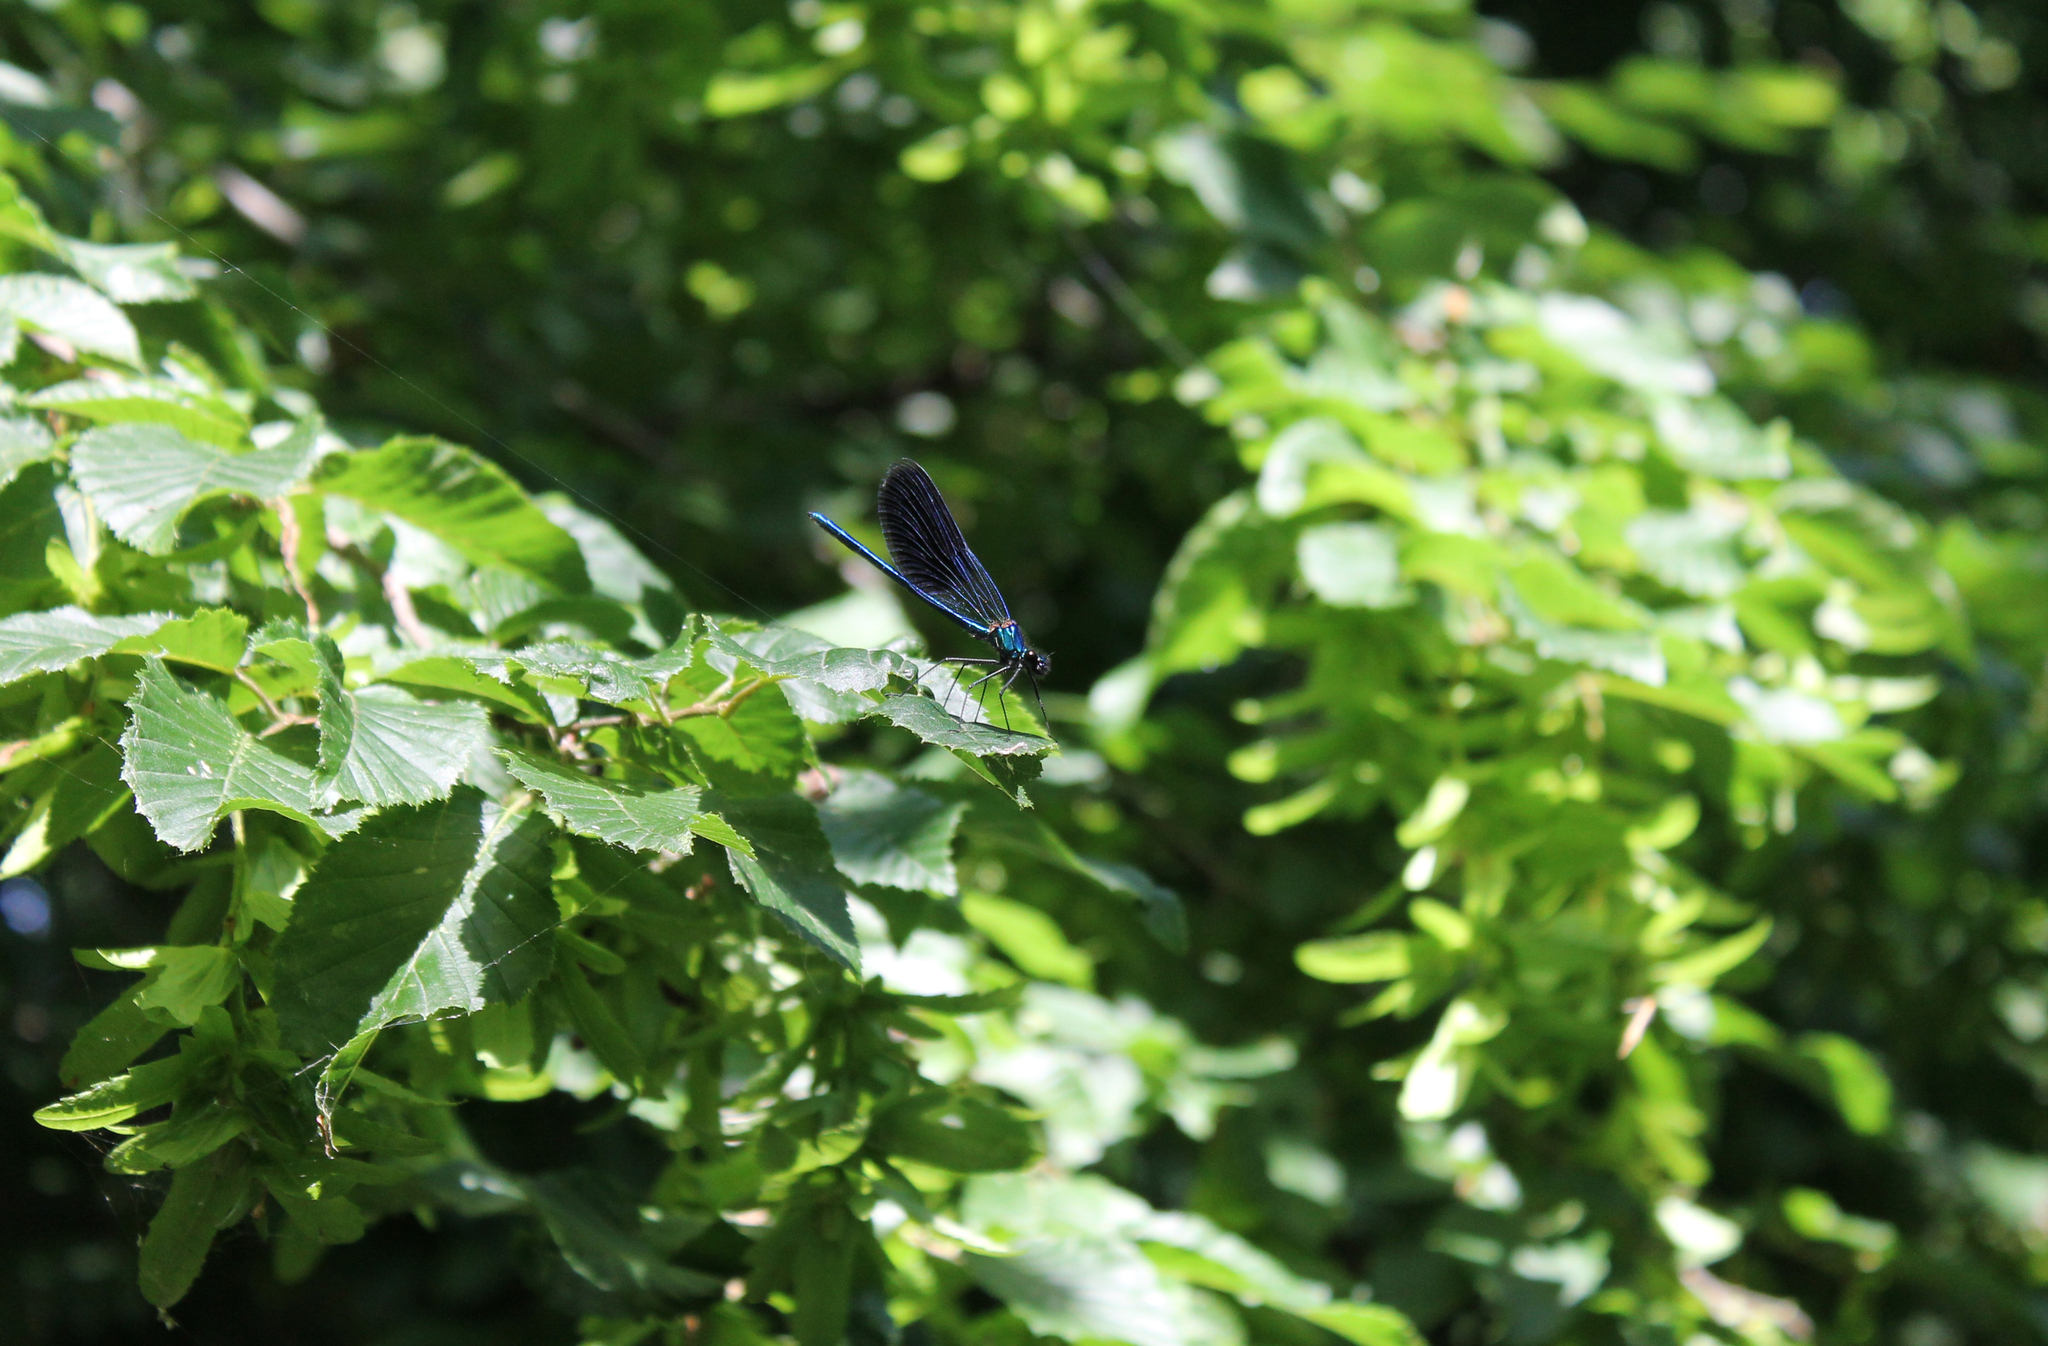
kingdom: Animalia
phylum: Arthropoda
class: Insecta
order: Odonata
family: Calopterygidae
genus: Calopteryx
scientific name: Calopteryx splendens
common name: Banded demoiselle
